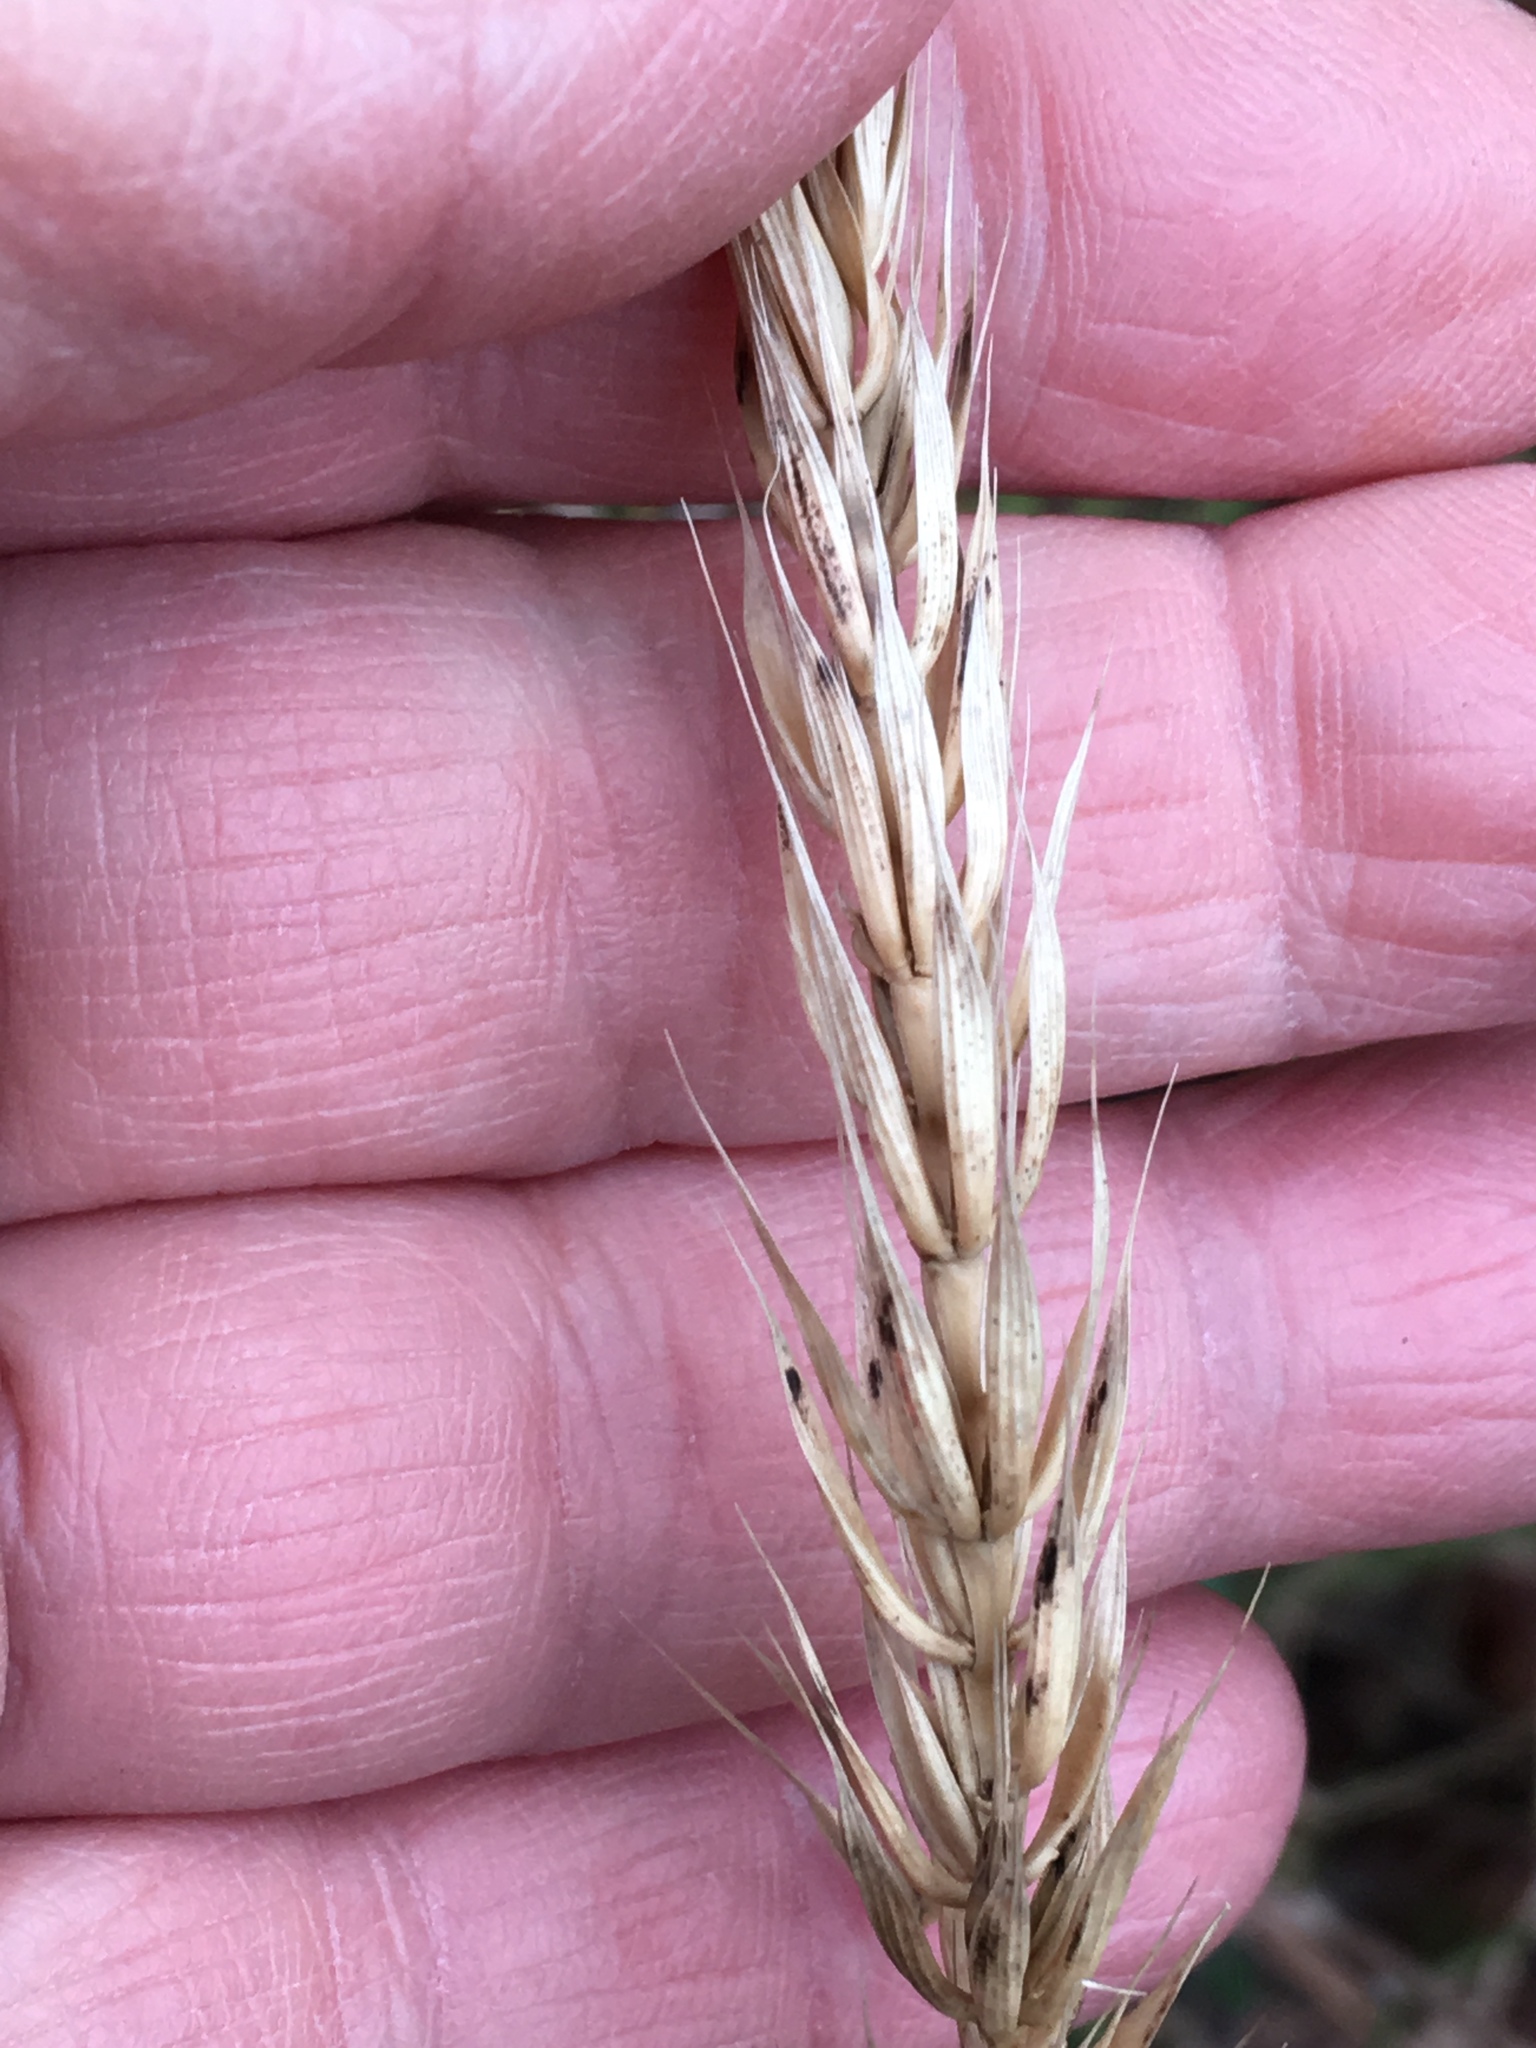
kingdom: Plantae
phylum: Tracheophyta
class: Liliopsida
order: Poales
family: Poaceae
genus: Elymus
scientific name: Elymus virginicus
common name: Common eastern wildrye
